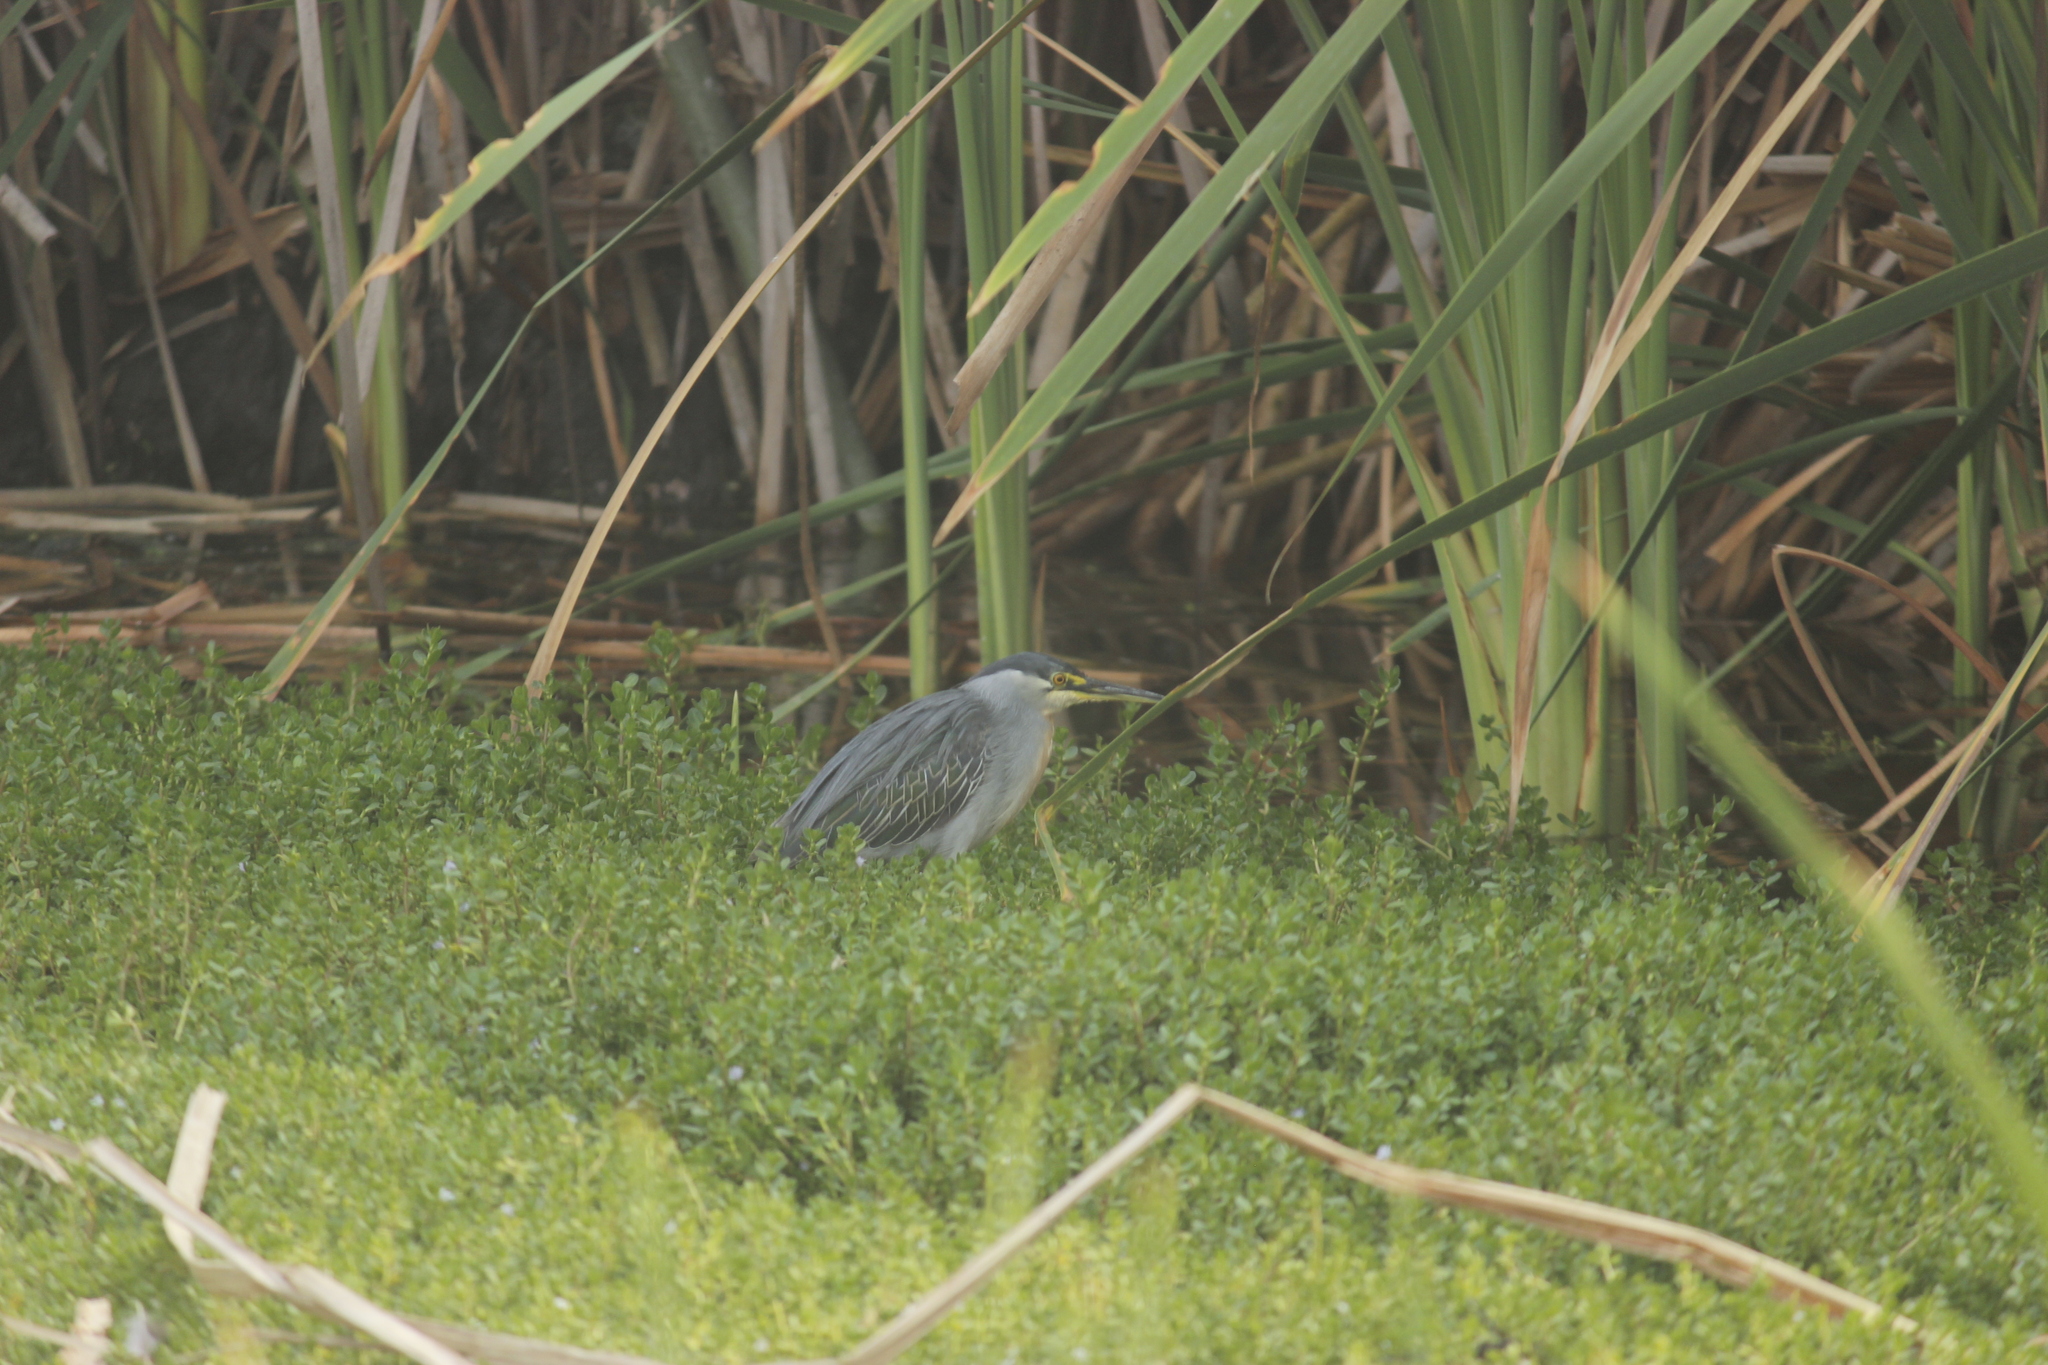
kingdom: Animalia
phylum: Chordata
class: Aves
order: Pelecaniformes
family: Ardeidae
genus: Butorides
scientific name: Butorides striata
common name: Striated heron
